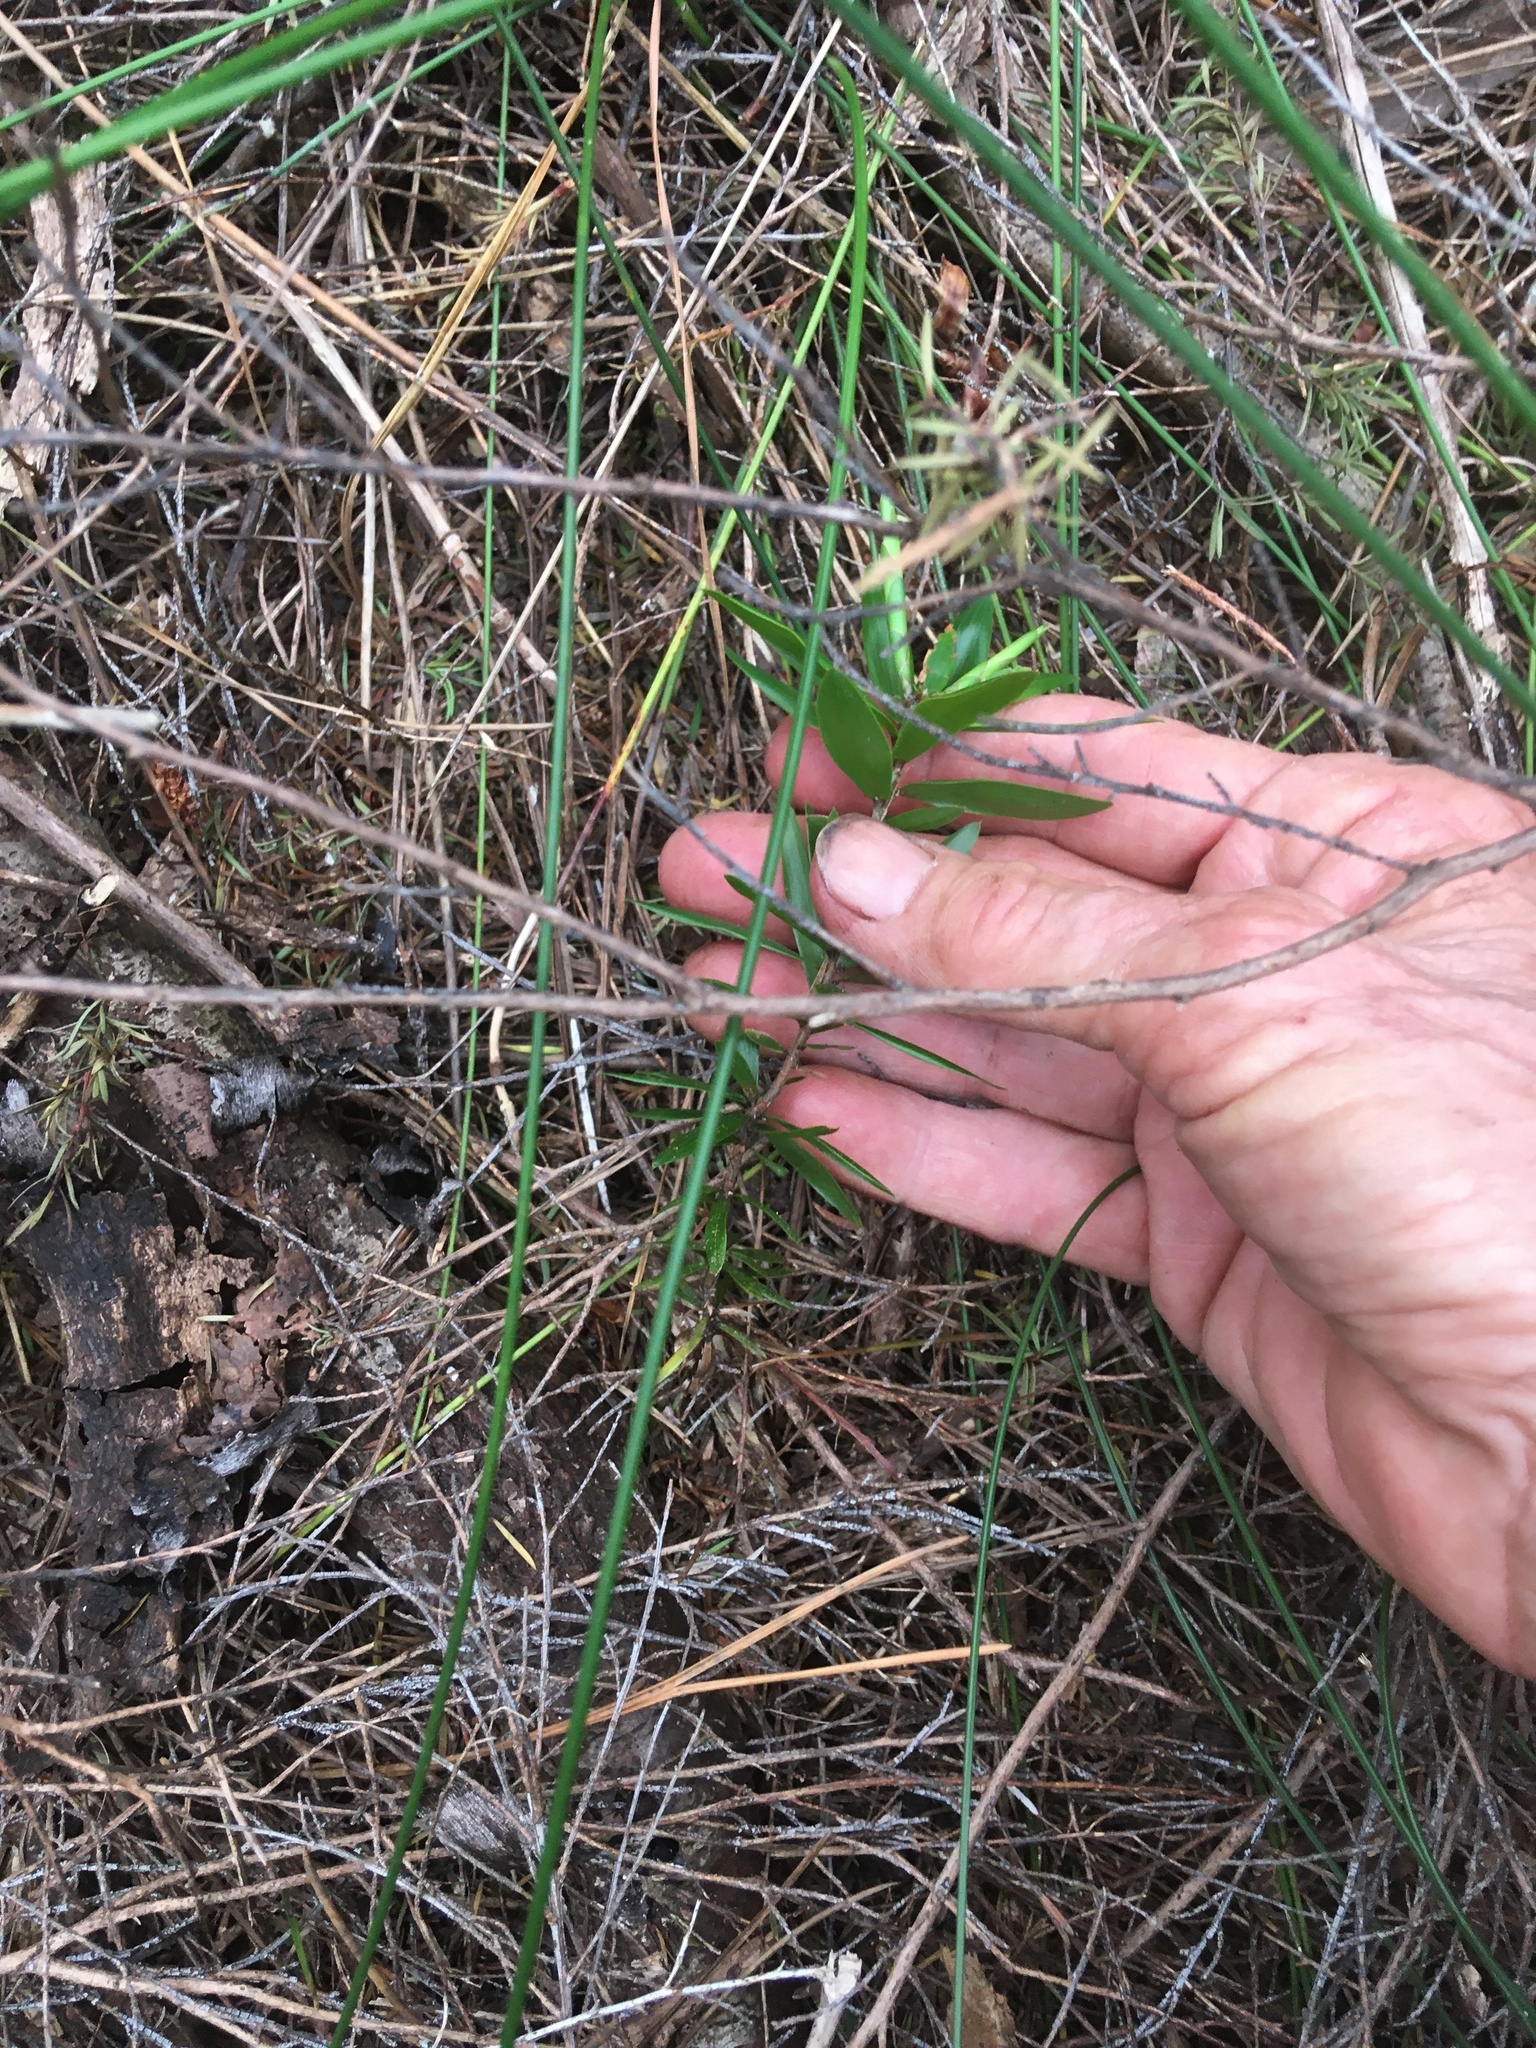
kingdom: Plantae
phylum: Tracheophyta
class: Magnoliopsida
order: Ericales
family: Ericaceae
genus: Leucopogon
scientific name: Leucopogon fasciculatus
